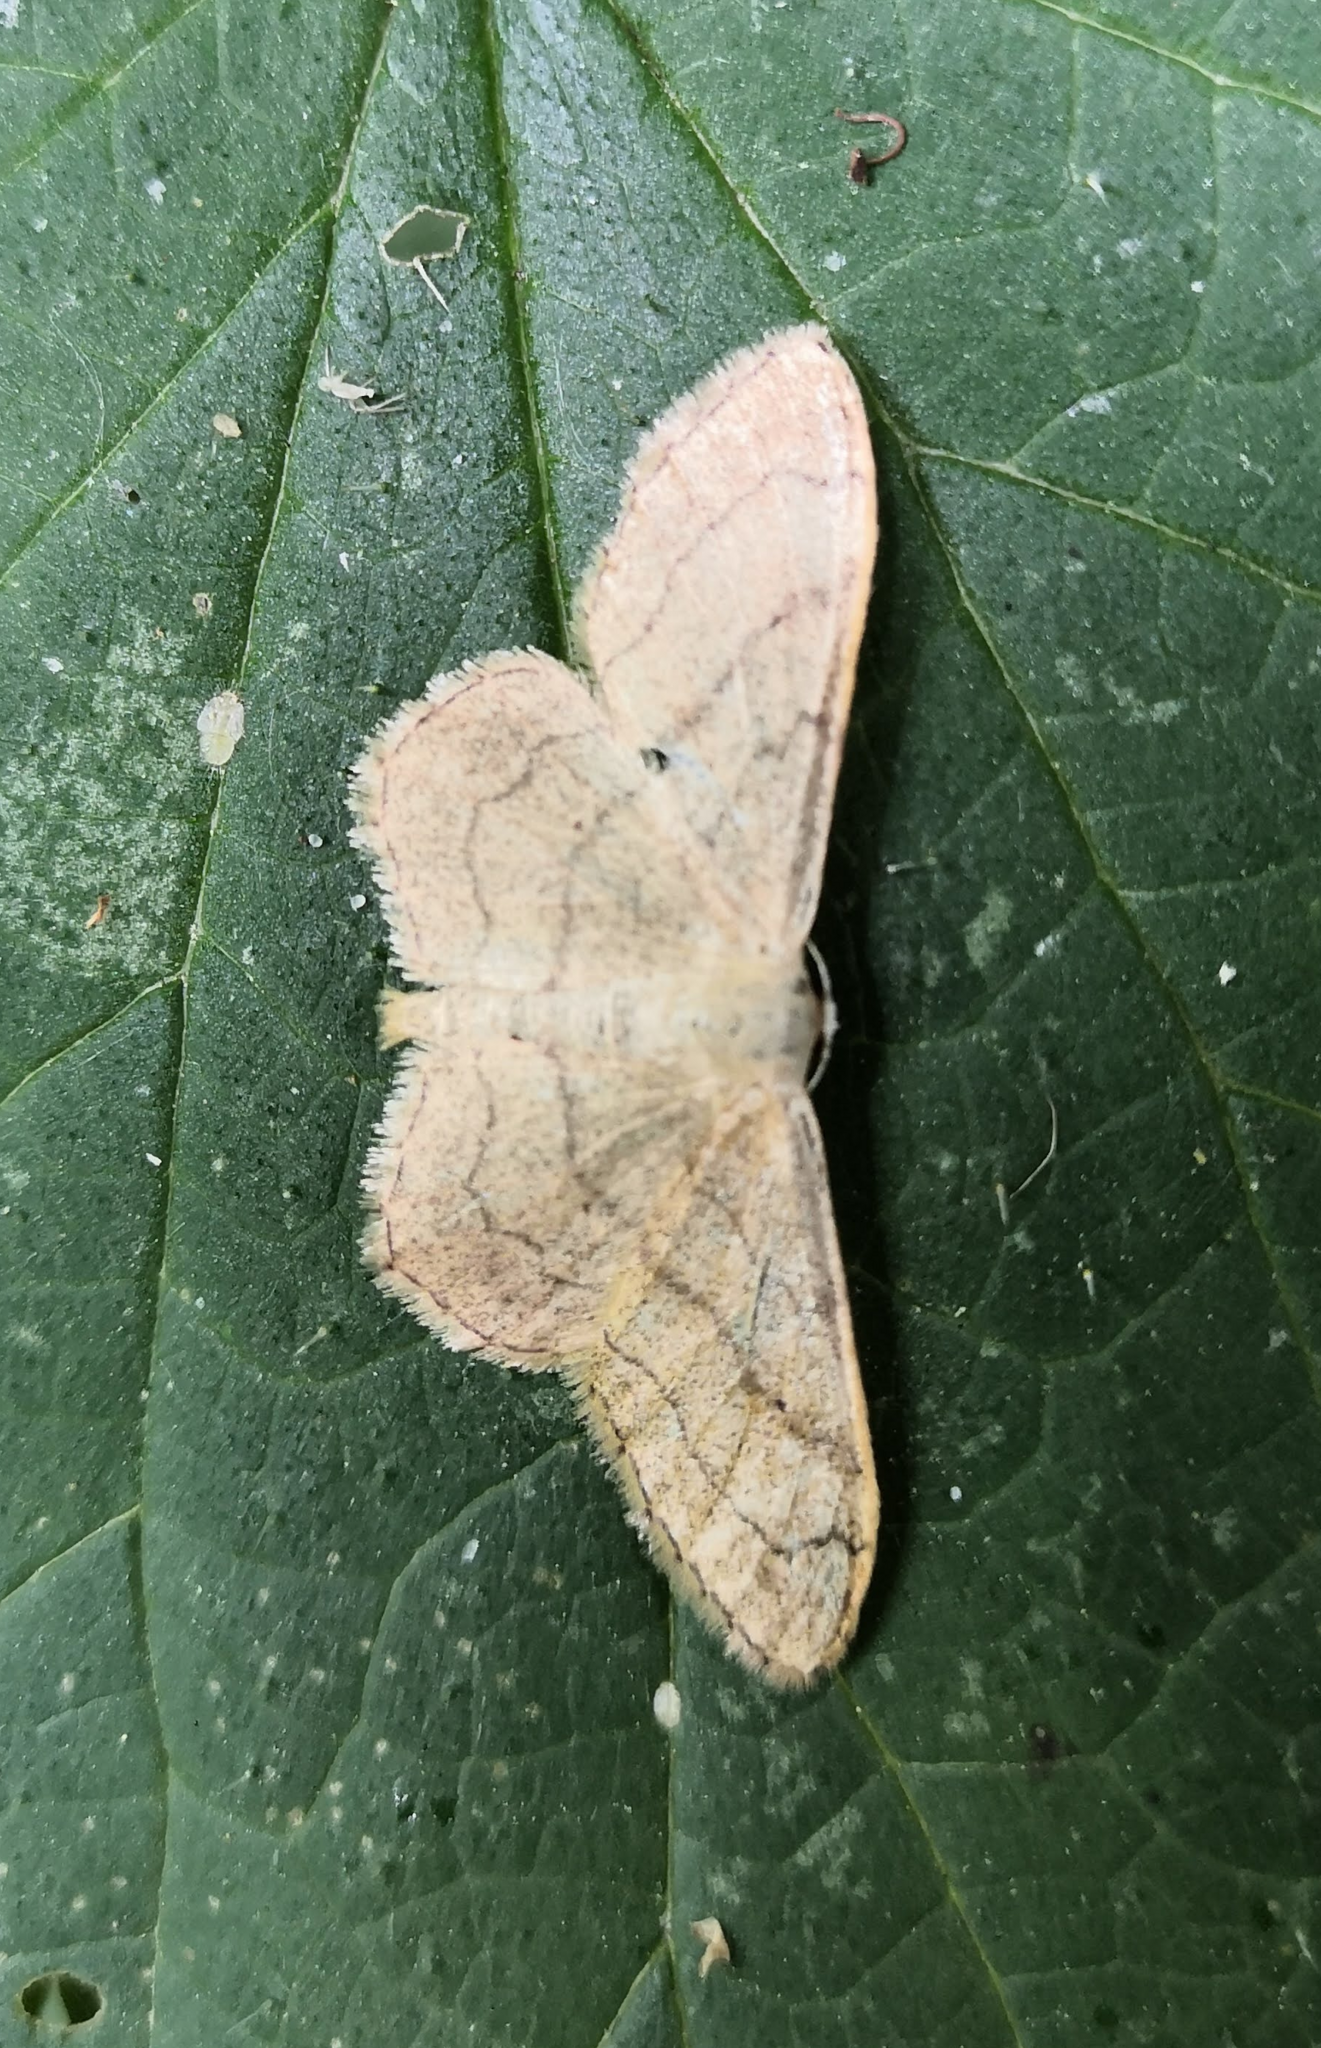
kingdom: Animalia
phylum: Arthropoda
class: Insecta
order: Lepidoptera
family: Geometridae
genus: Idaea
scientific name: Idaea aversata
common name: Riband wave
